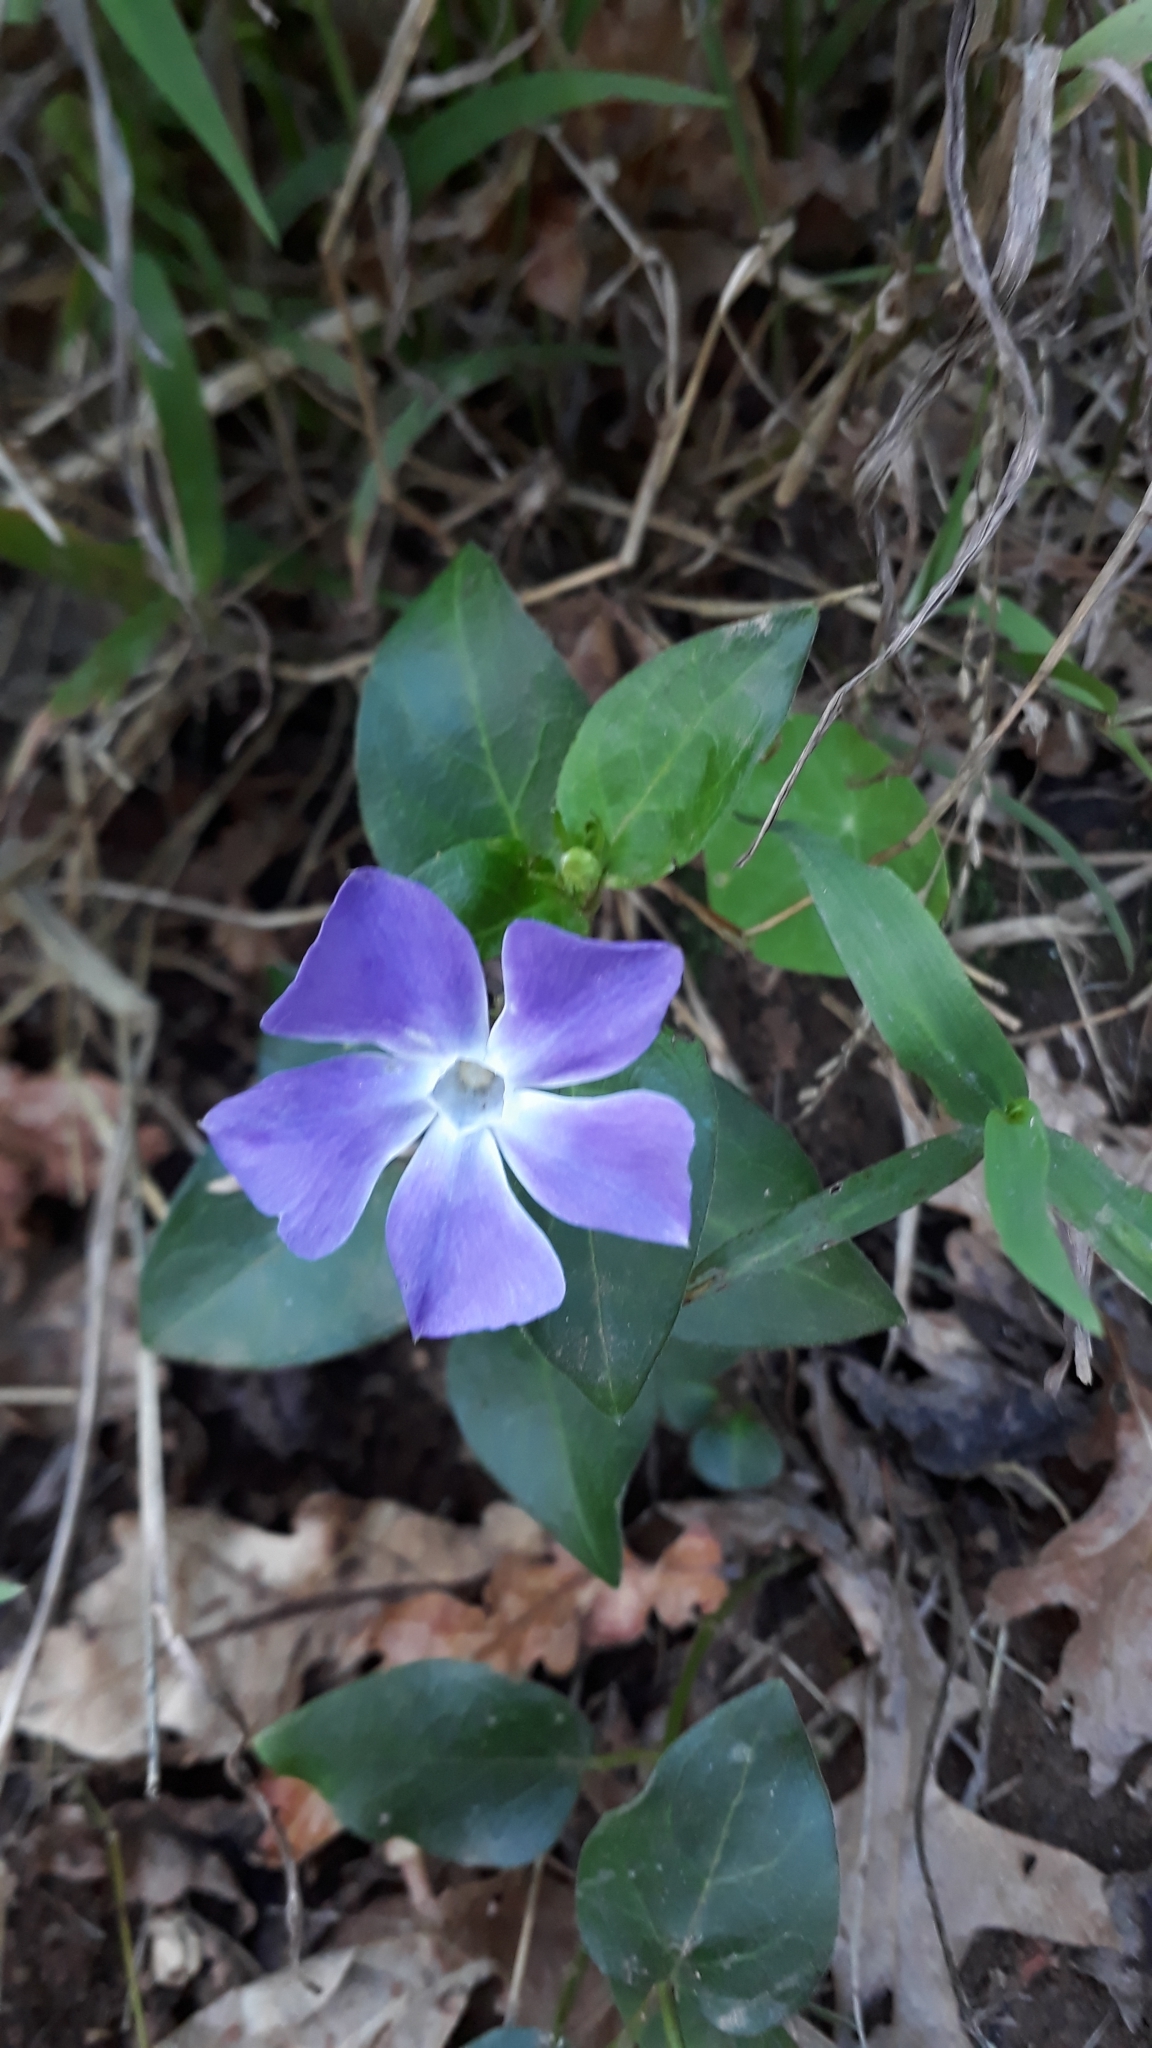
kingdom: Plantae
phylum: Tracheophyta
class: Magnoliopsida
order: Gentianales
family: Apocynaceae
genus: Vinca
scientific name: Vinca major
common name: Greater periwinkle
